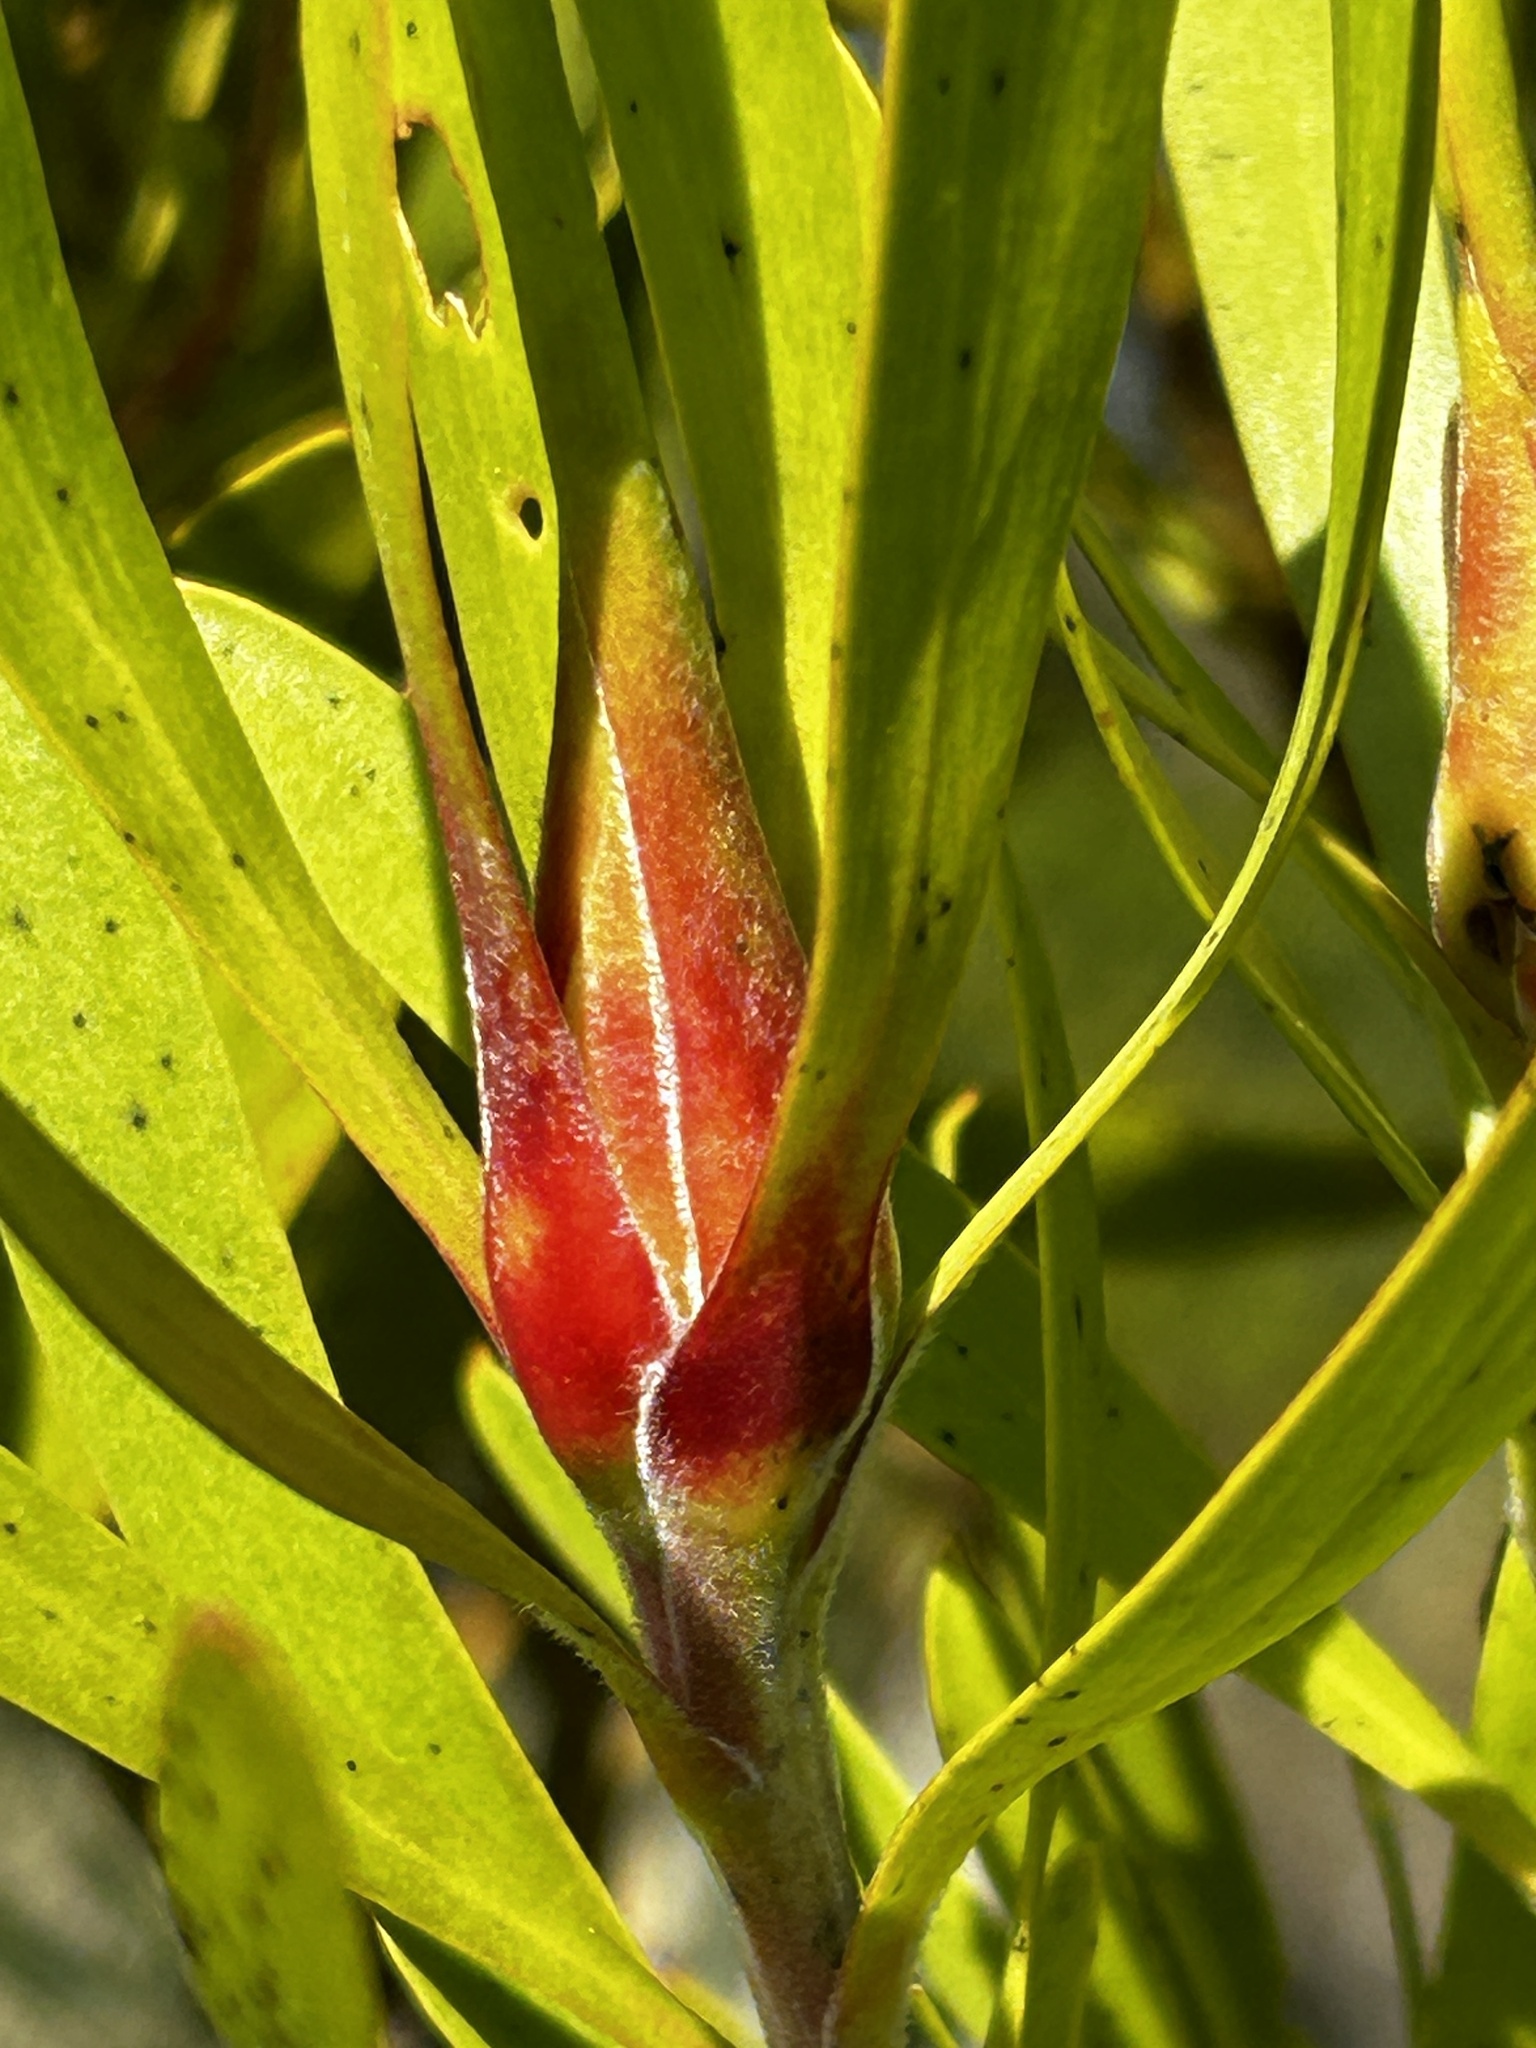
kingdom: Plantae
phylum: Tracheophyta
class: Magnoliopsida
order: Proteales
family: Proteaceae
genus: Leucadendron
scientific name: Leucadendron eucalyptifolium
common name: Gum-leaved conebush
